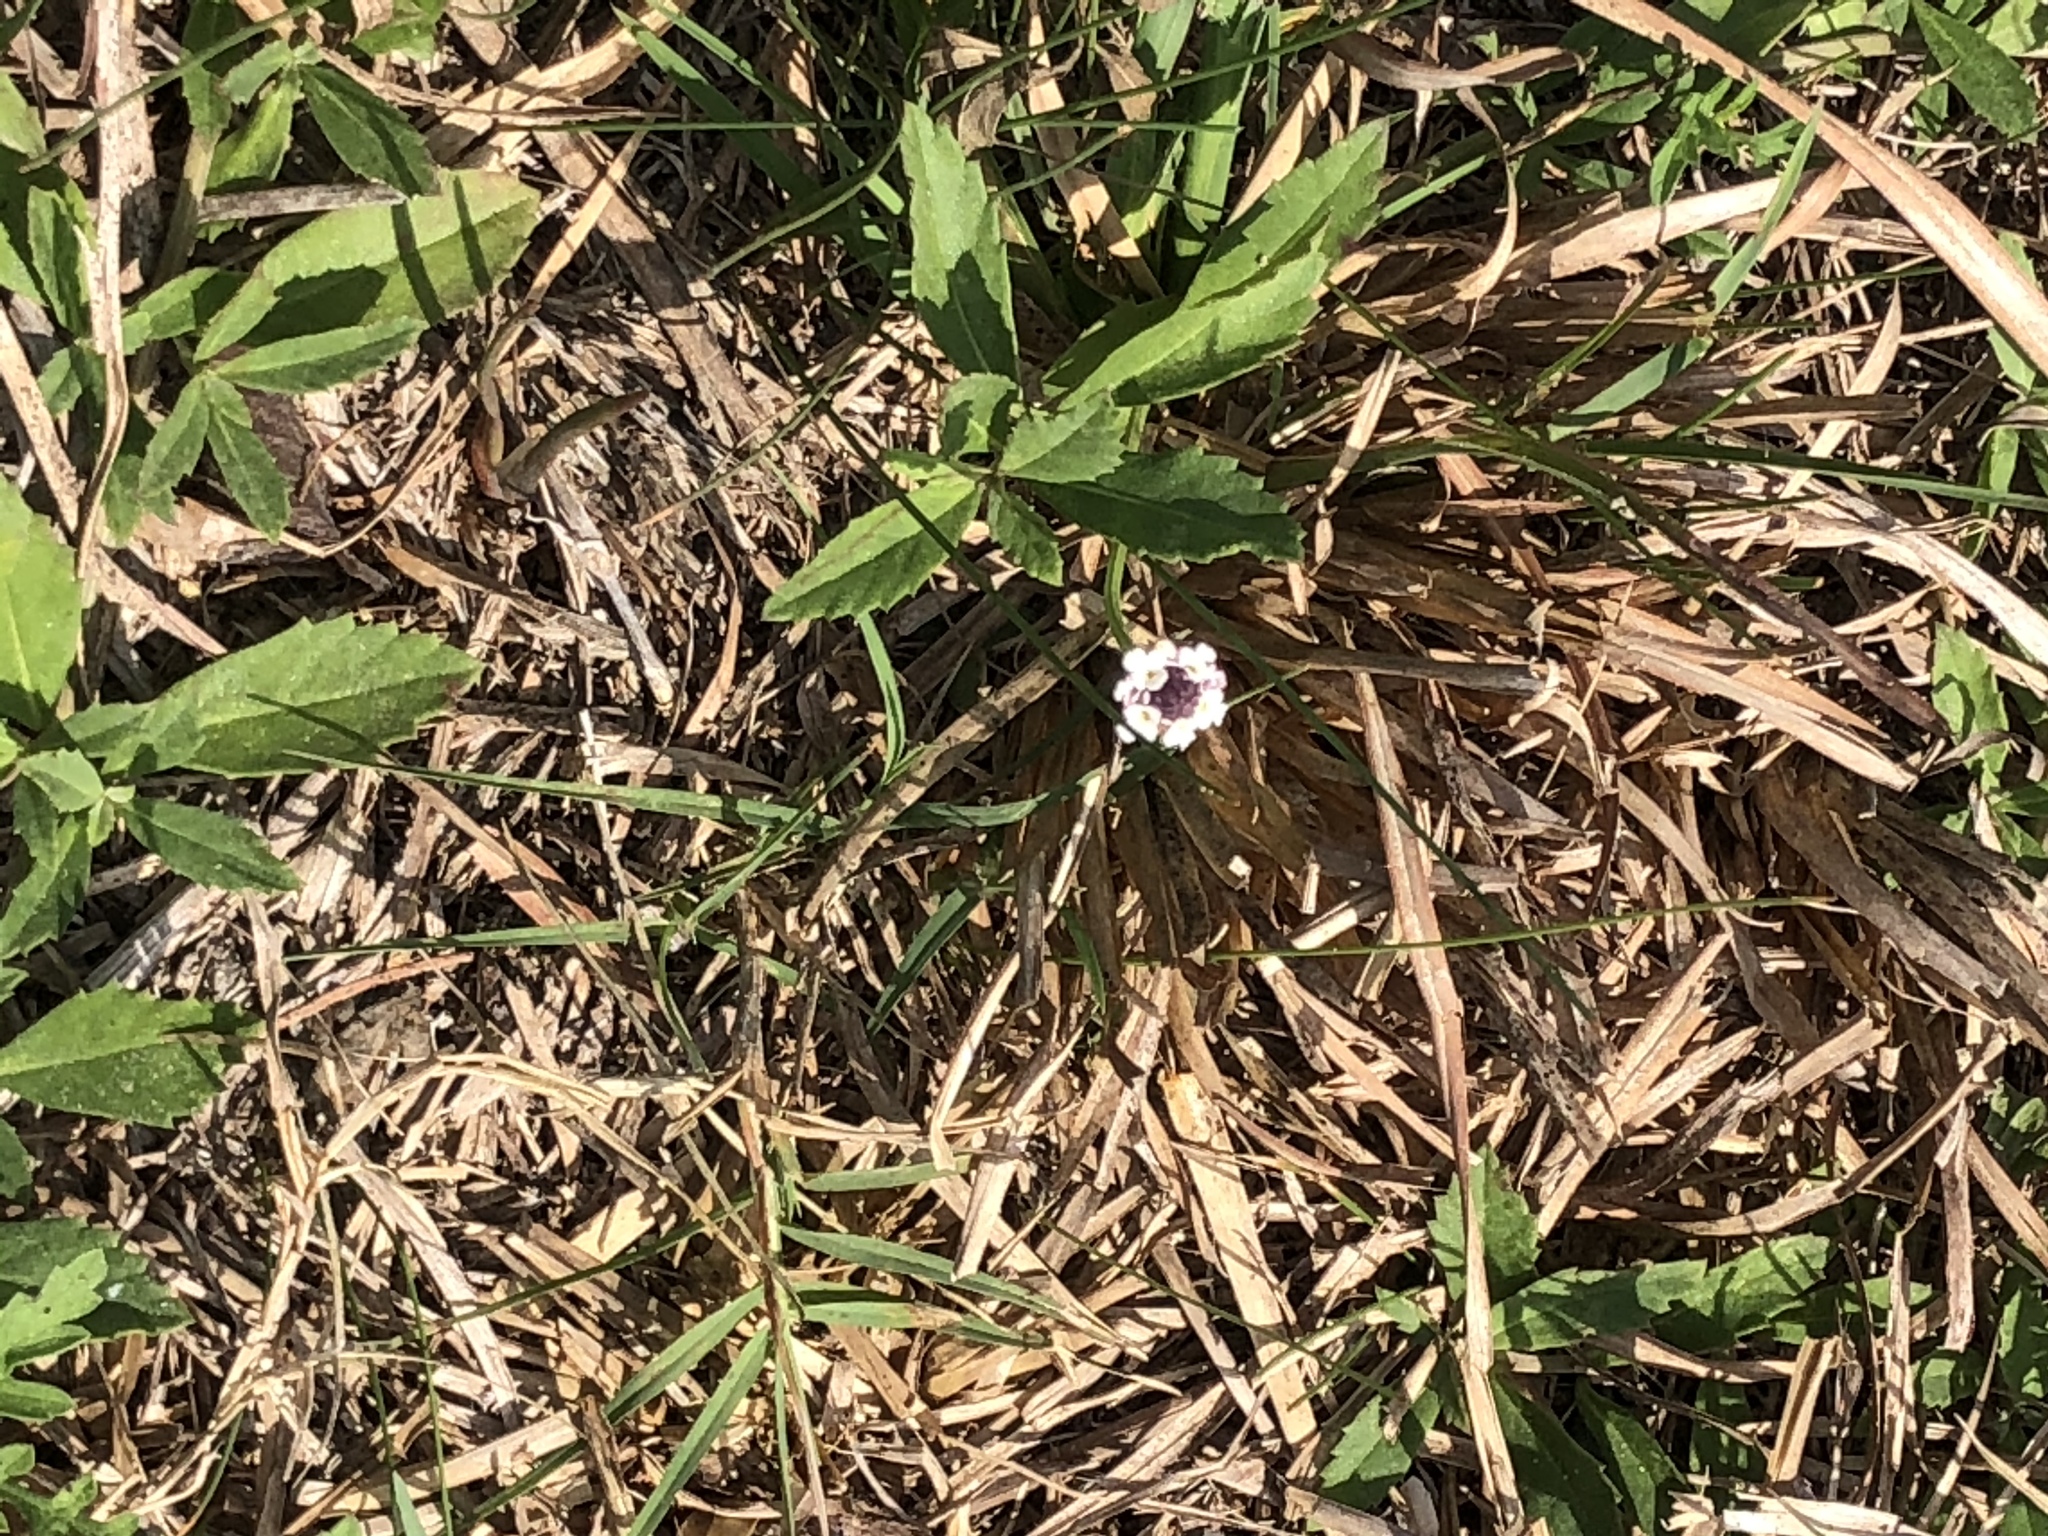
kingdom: Plantae
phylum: Tracheophyta
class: Magnoliopsida
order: Lamiales
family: Verbenaceae
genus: Phyla
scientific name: Phyla nodiflora
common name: Frogfruit
